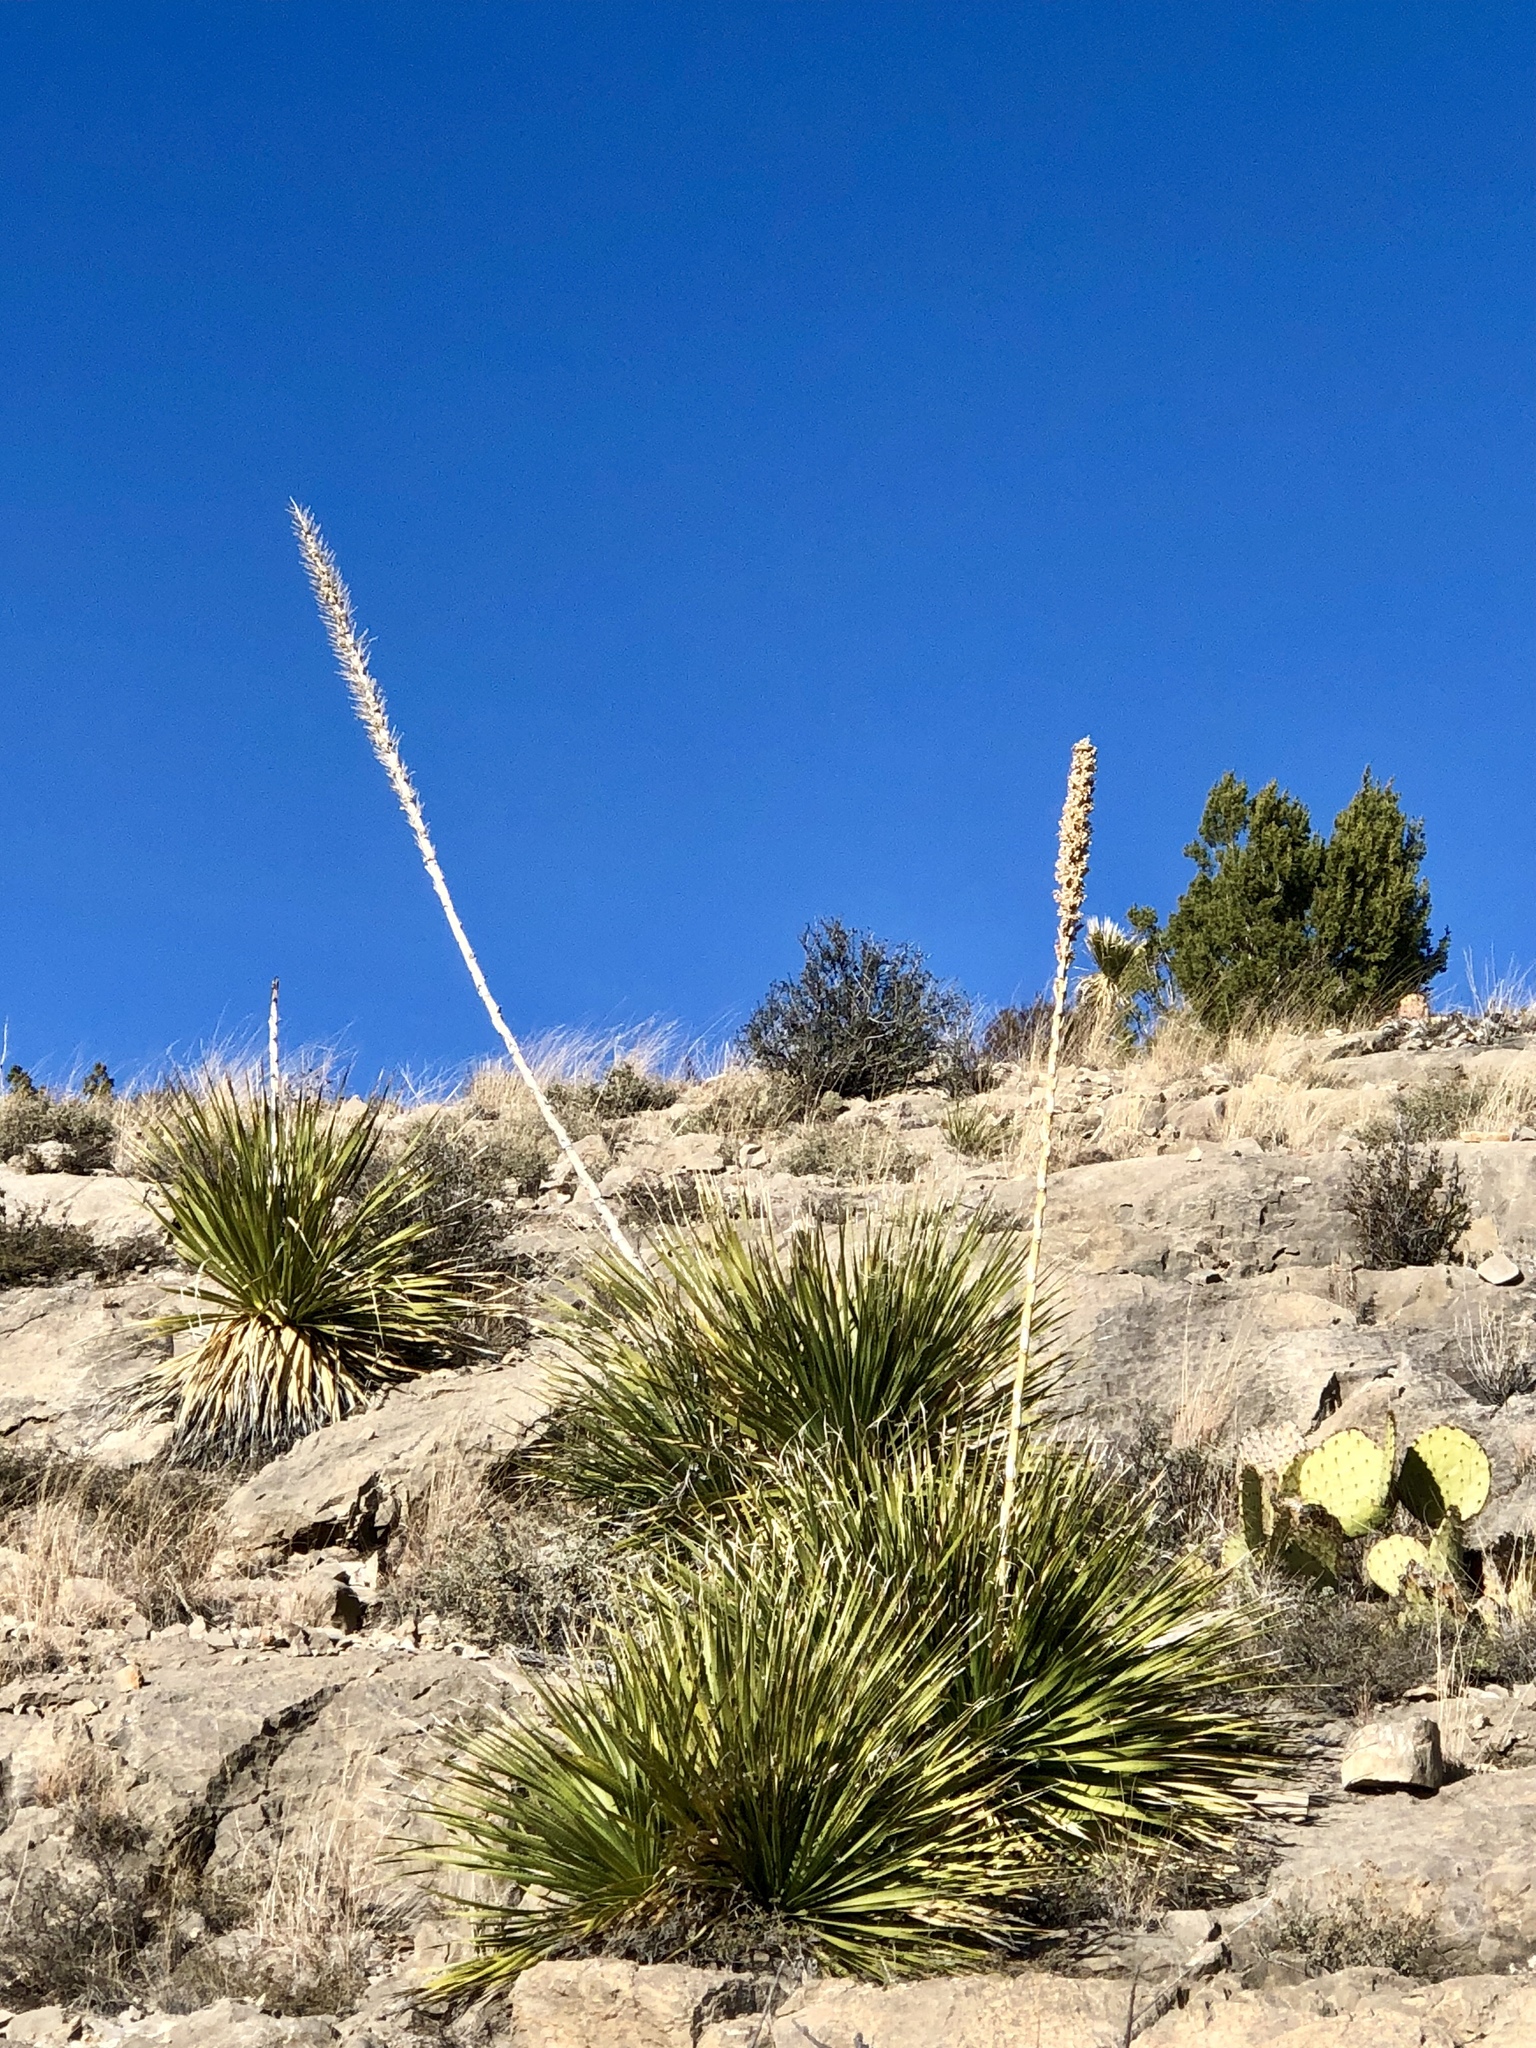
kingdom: Plantae
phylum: Tracheophyta
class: Liliopsida
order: Asparagales
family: Asparagaceae
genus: Dasylirion
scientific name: Dasylirion wheeleri
